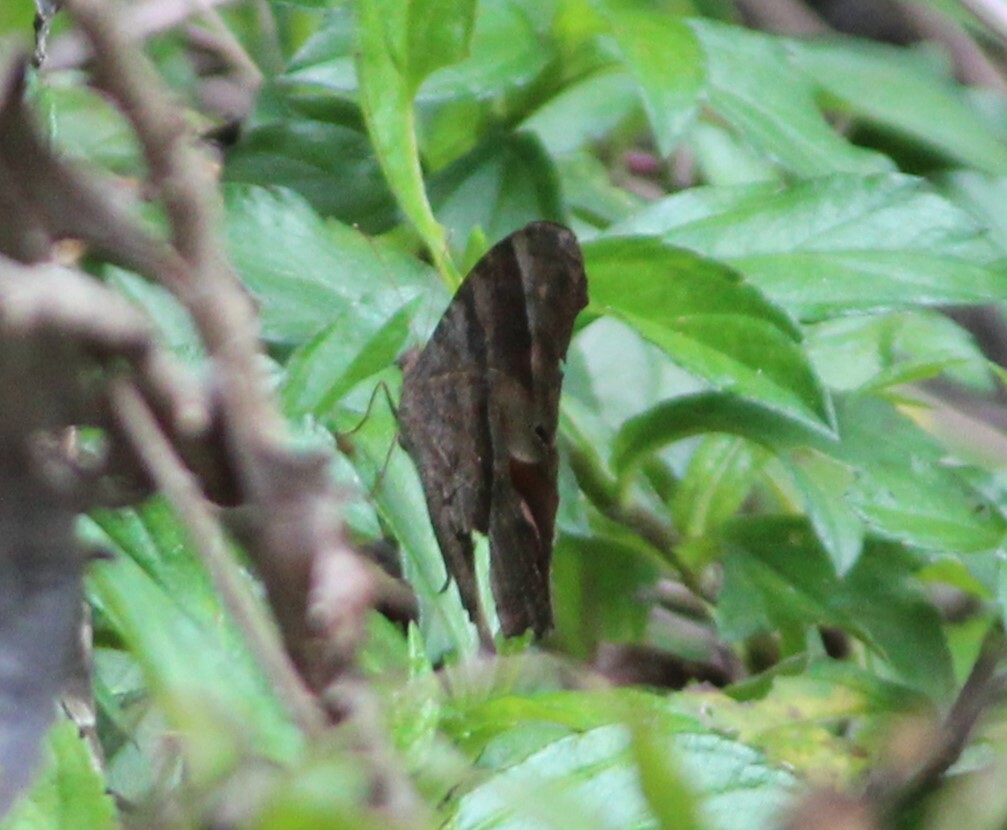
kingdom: Animalia
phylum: Arthropoda
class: Insecta
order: Lepidoptera
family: Nymphalidae
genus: Melanitis
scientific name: Melanitis leda
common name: Twilight brown
